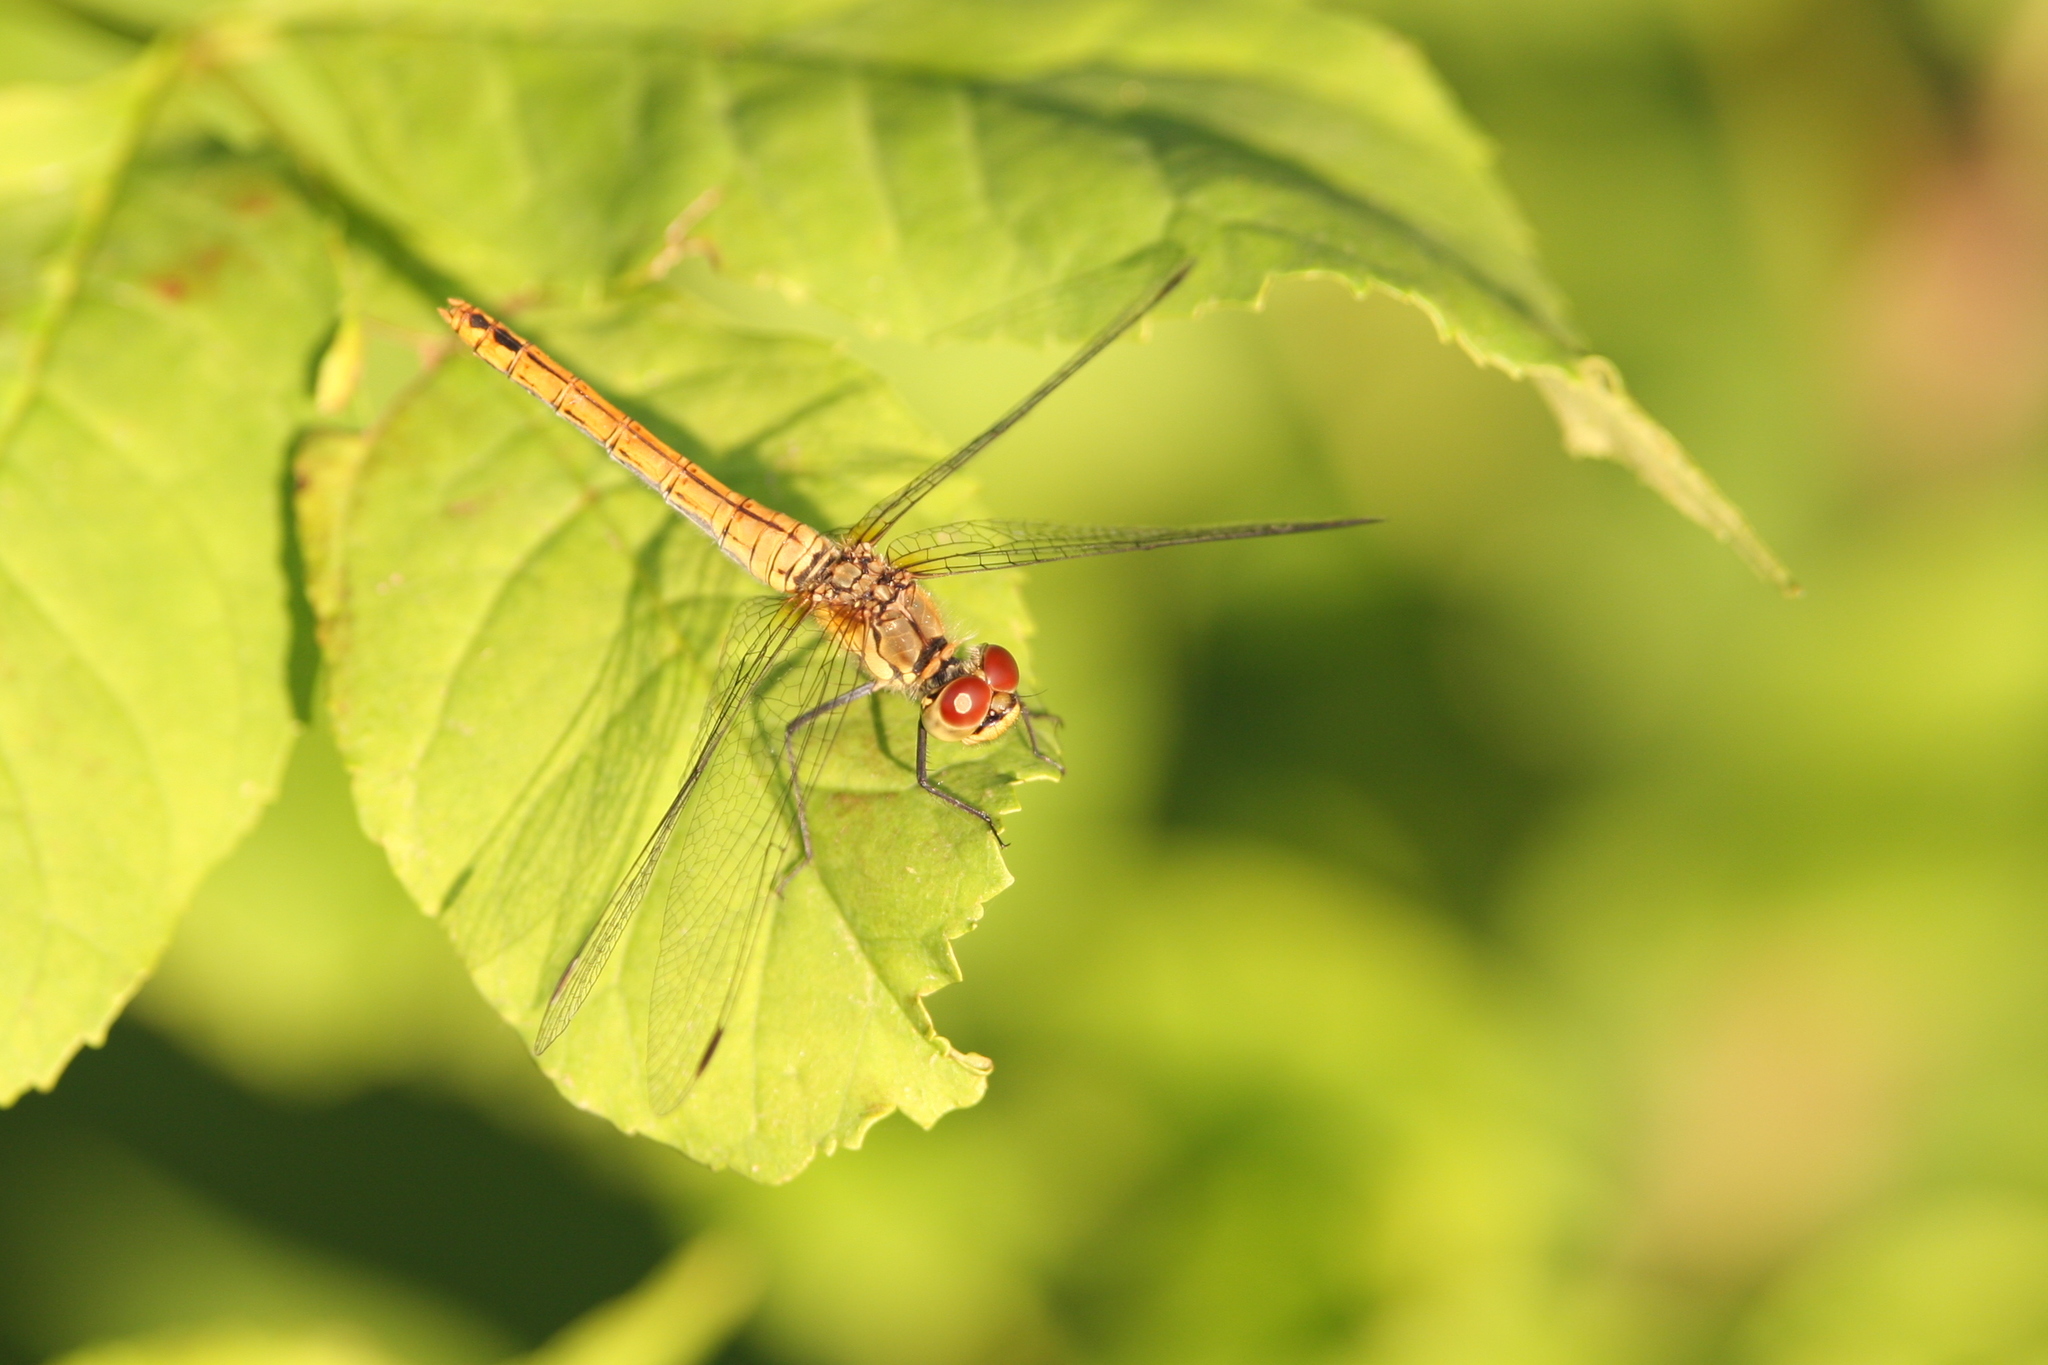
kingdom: Animalia
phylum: Arthropoda
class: Insecta
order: Odonata
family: Libellulidae
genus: Sympetrum
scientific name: Sympetrum sanguineum
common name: Ruddy darter
